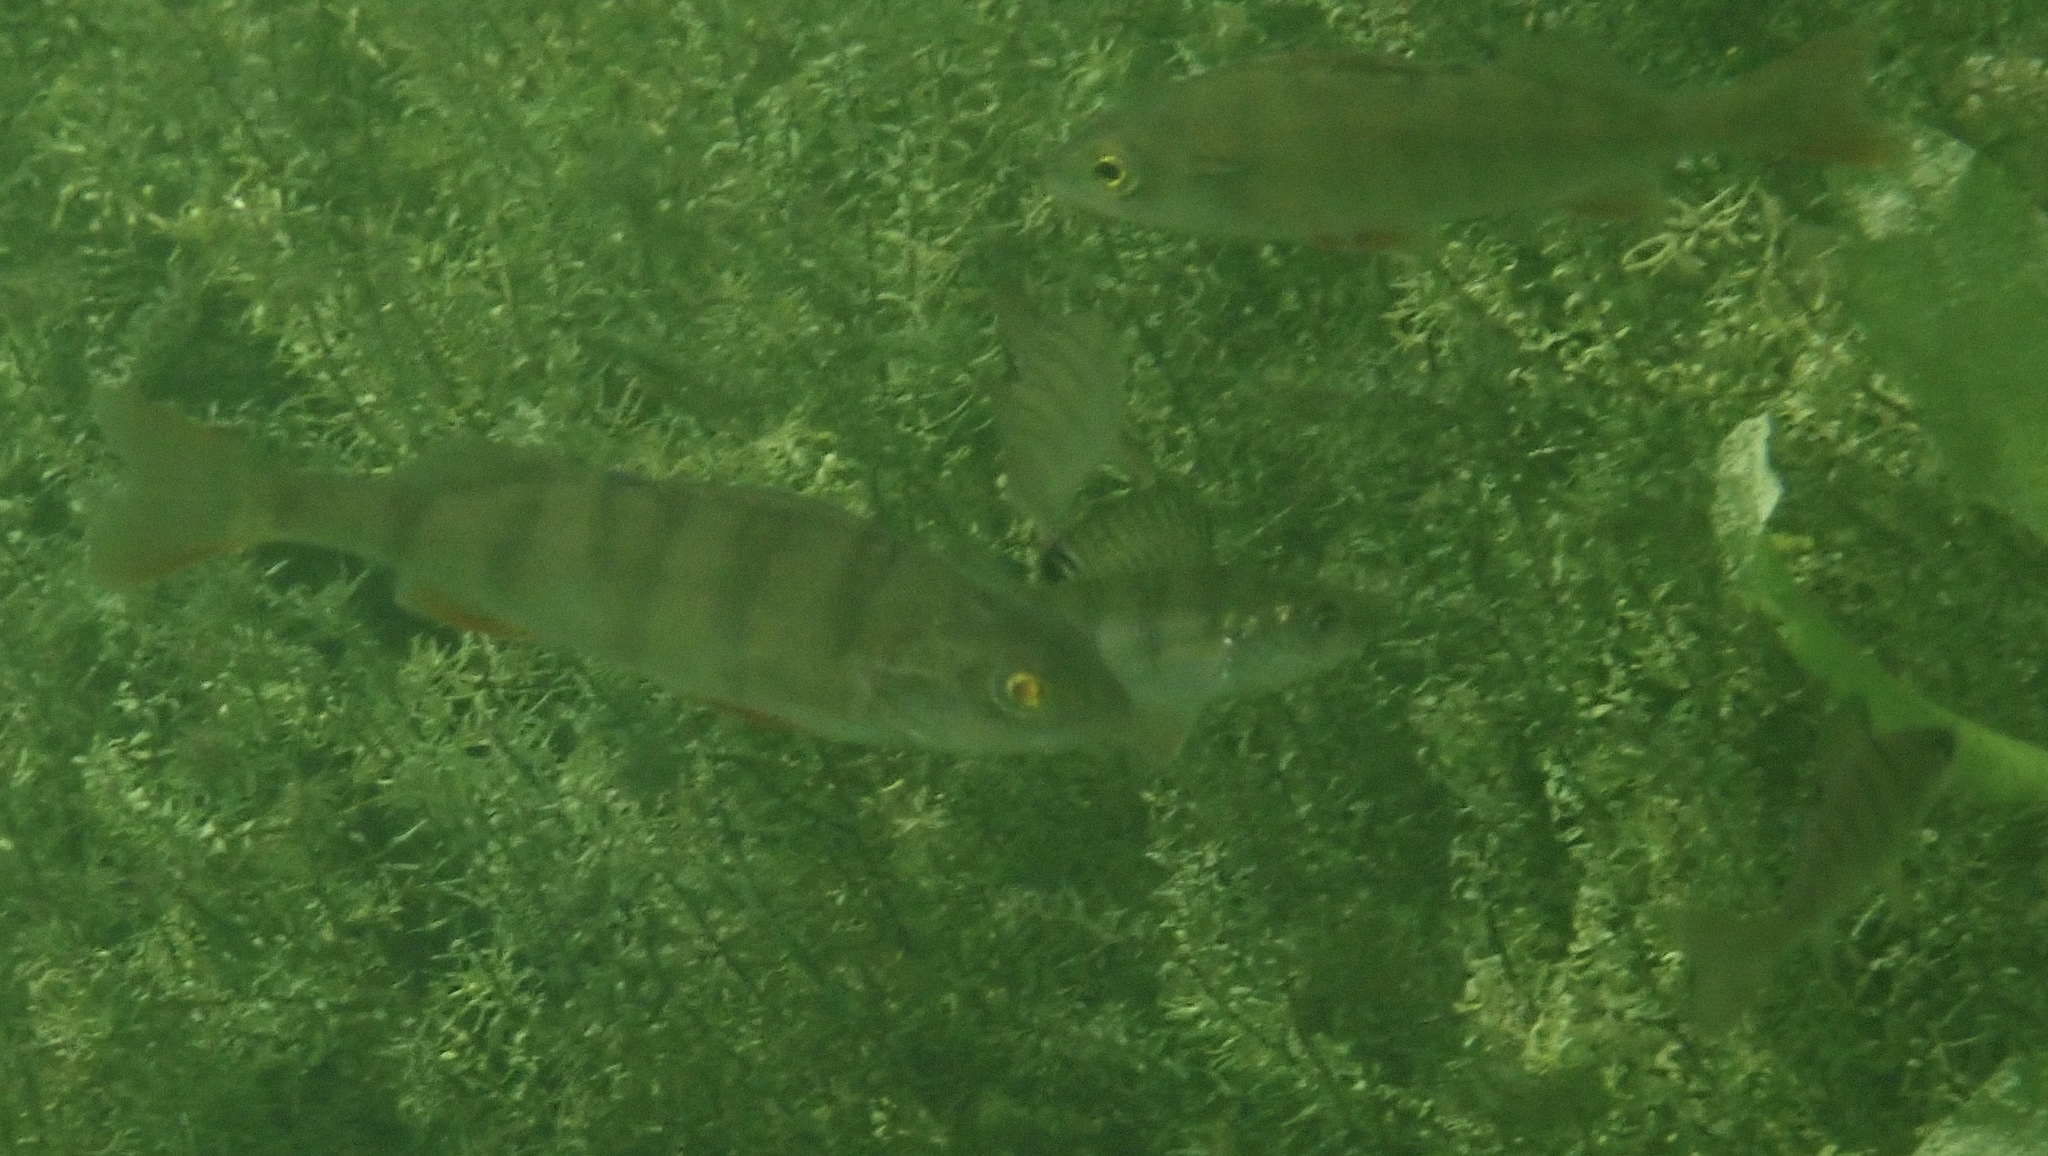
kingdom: Animalia
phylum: Chordata
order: Perciformes
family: Percidae
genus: Perca
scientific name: Perca fluviatilis
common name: Perch
